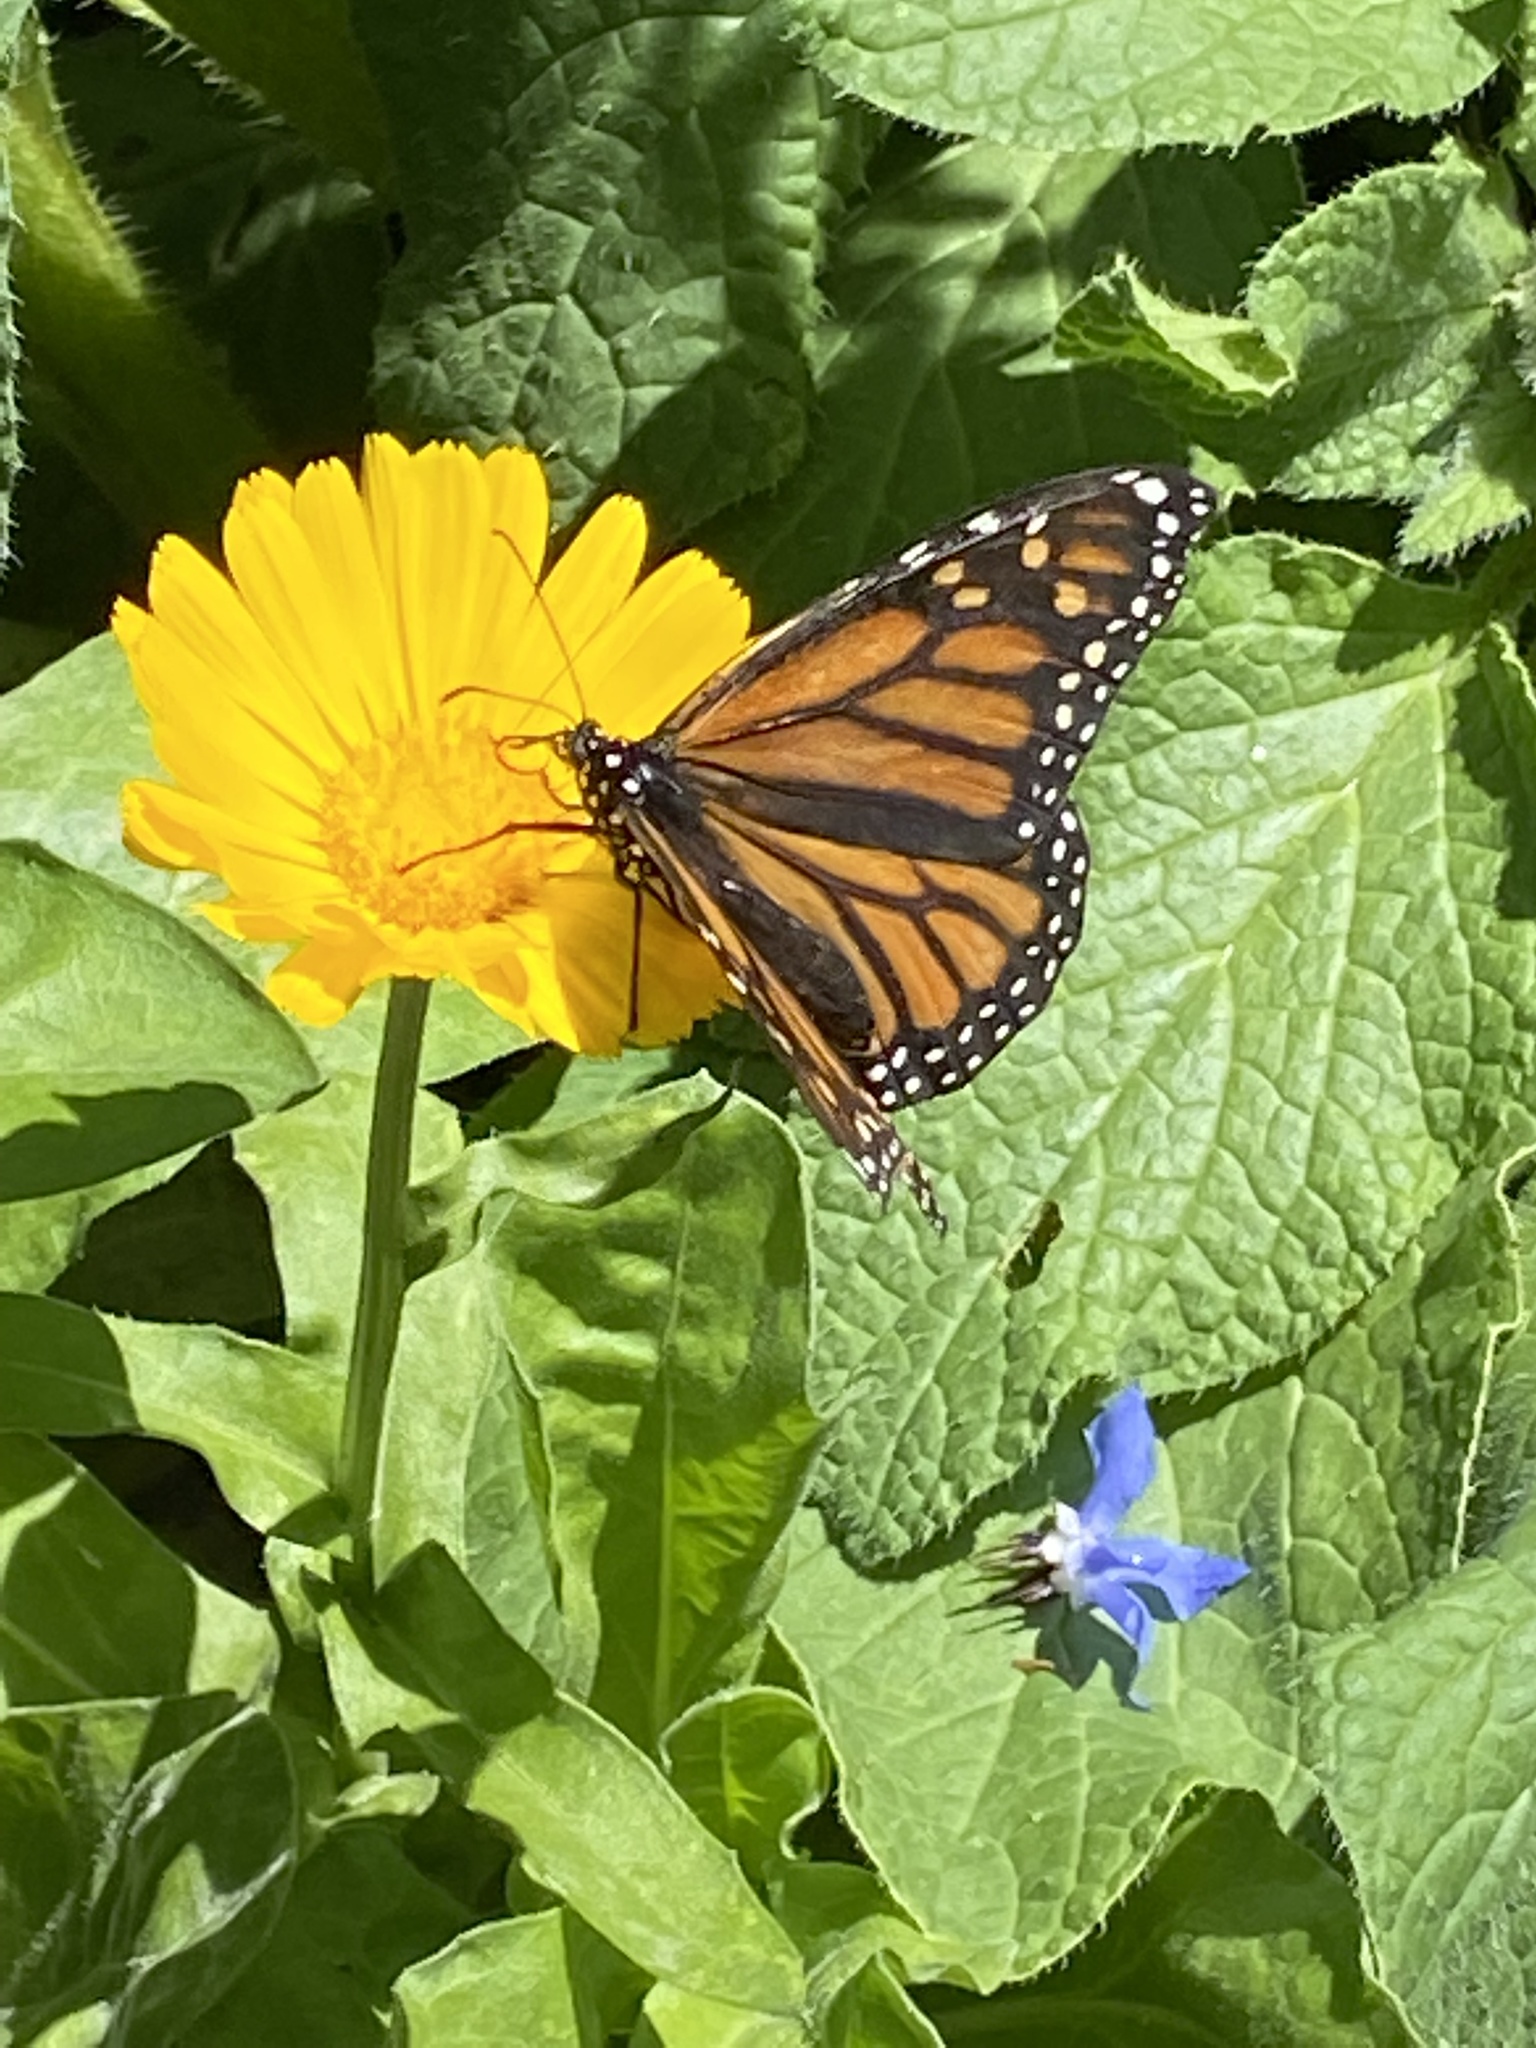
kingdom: Animalia
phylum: Arthropoda
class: Insecta
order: Lepidoptera
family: Nymphalidae
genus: Danaus
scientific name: Danaus plexippus
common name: Monarch
